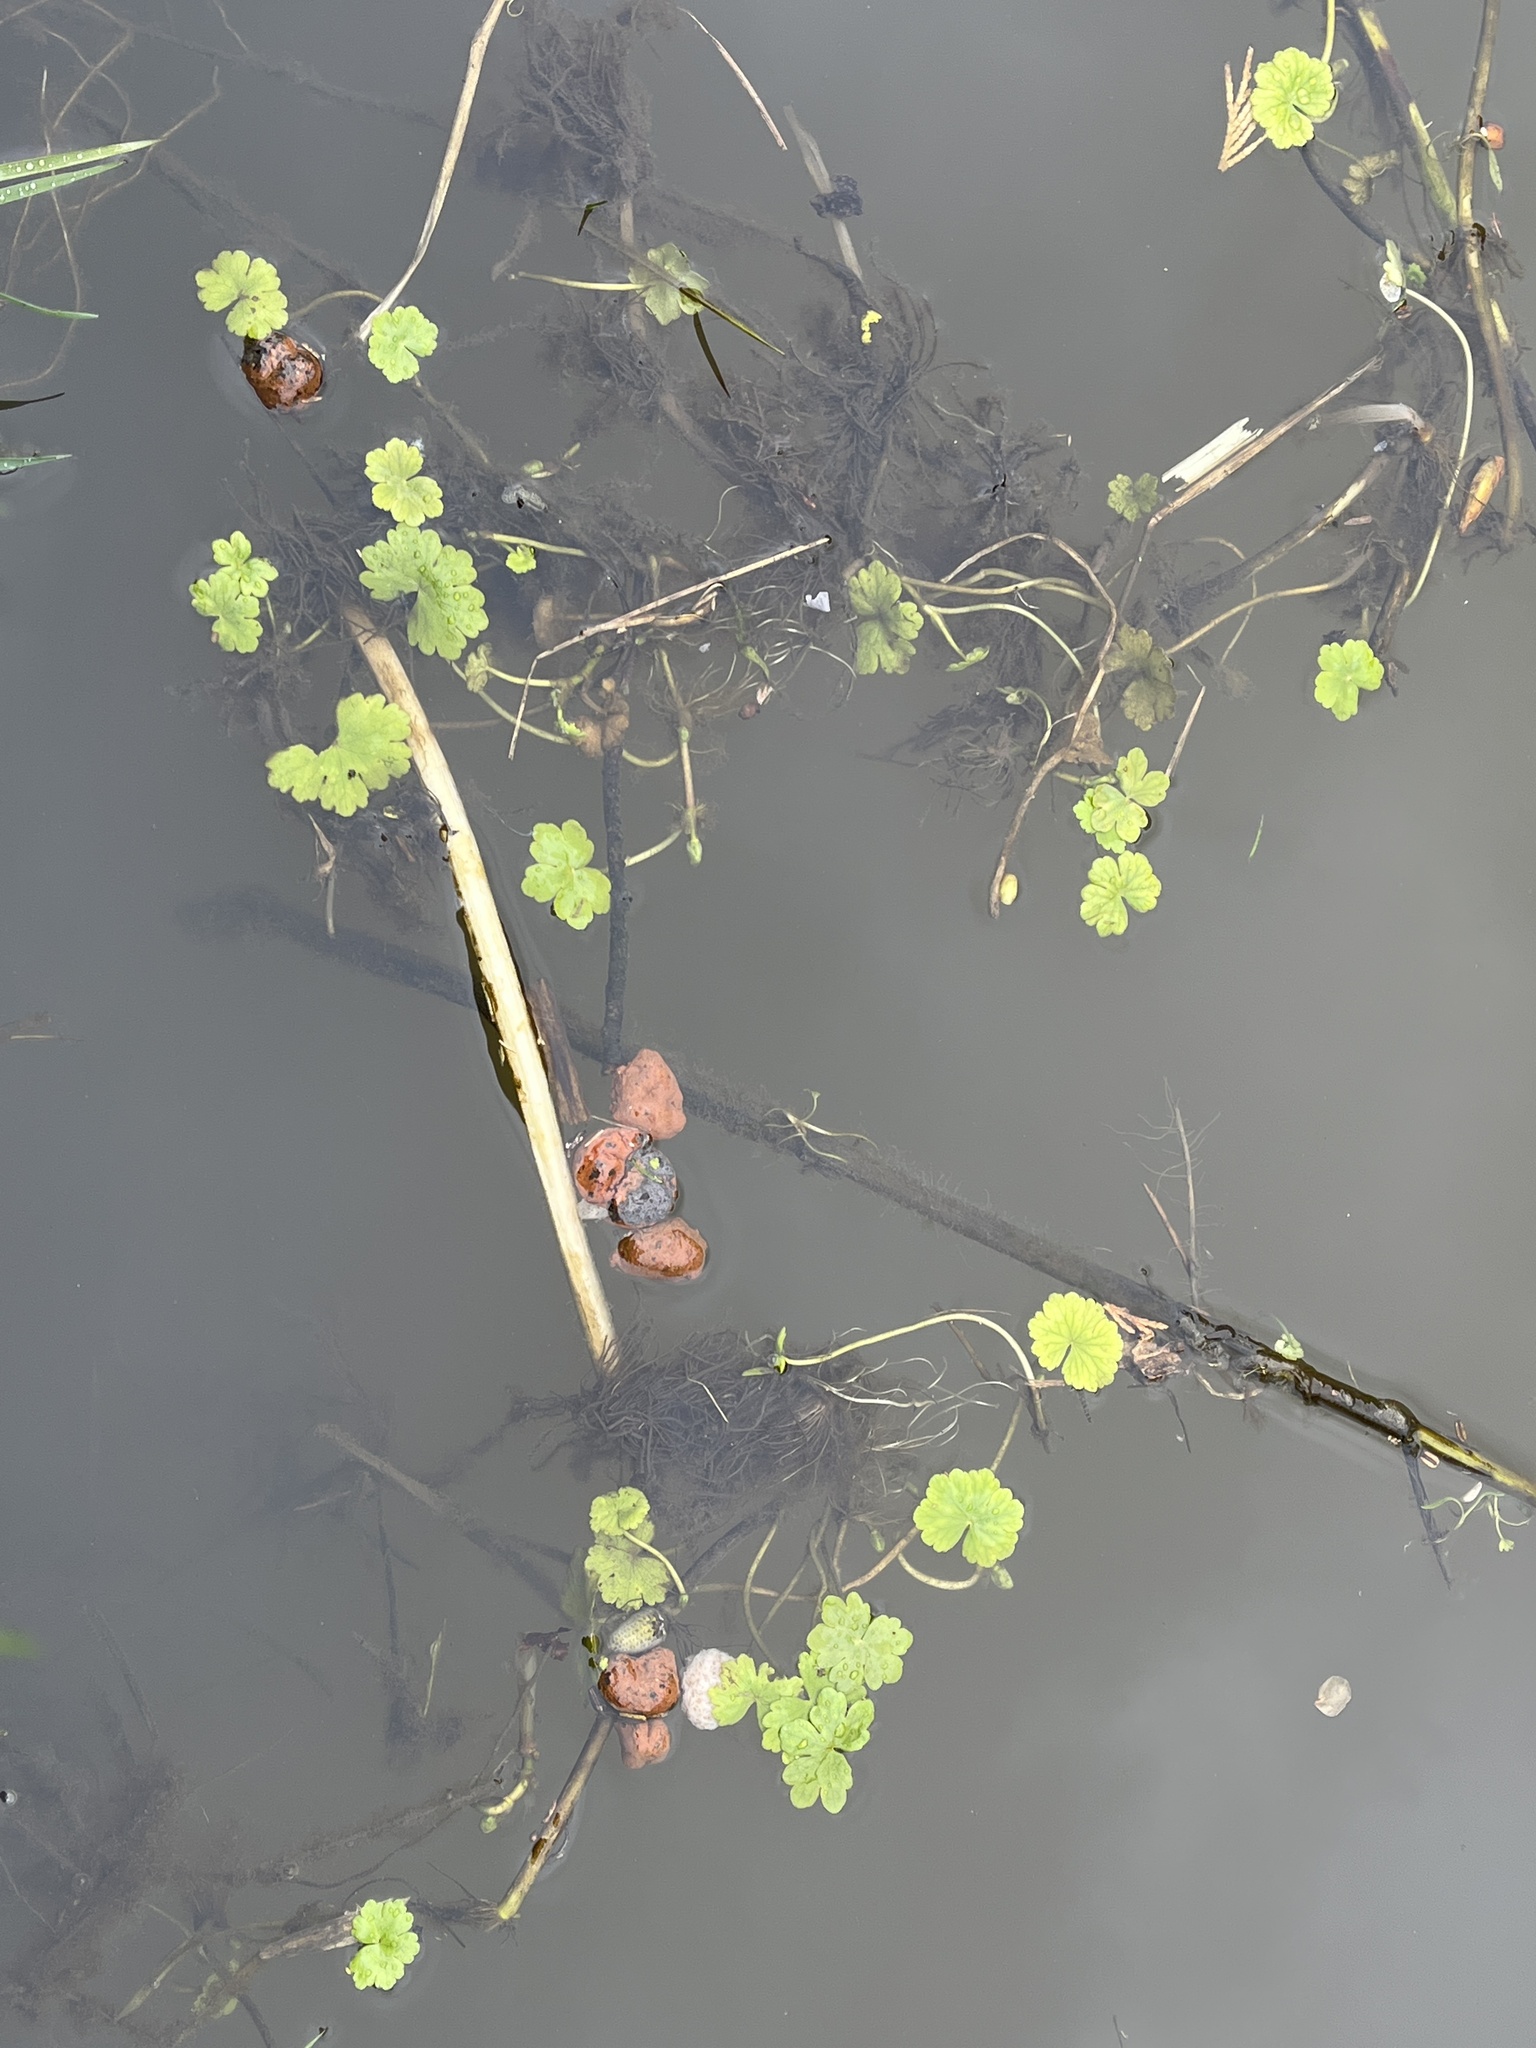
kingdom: Plantae
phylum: Tracheophyta
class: Magnoliopsida
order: Apiales
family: Araliaceae
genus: Hydrocotyle
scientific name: Hydrocotyle ranunculoides
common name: Floating pennywort
